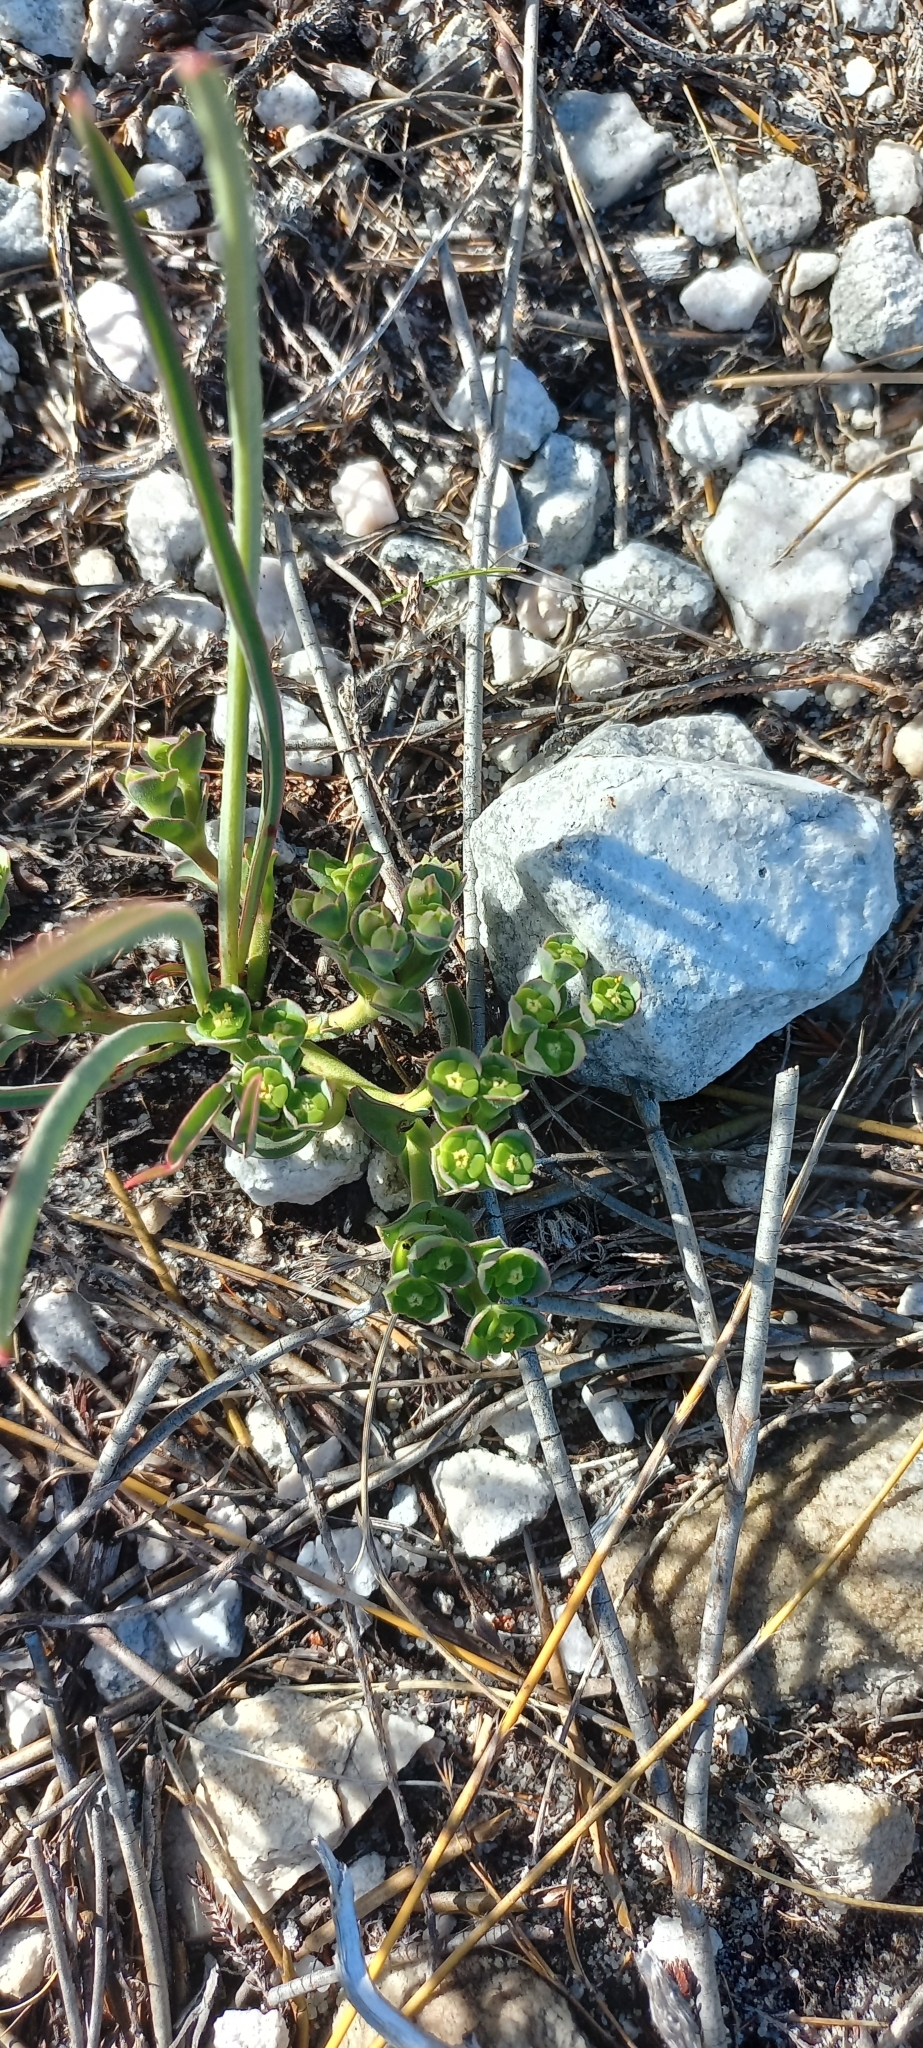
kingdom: Plantae
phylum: Tracheophyta
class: Magnoliopsida
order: Malpighiales
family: Euphorbiaceae
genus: Euphorbia
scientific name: Euphorbia silenifolia
